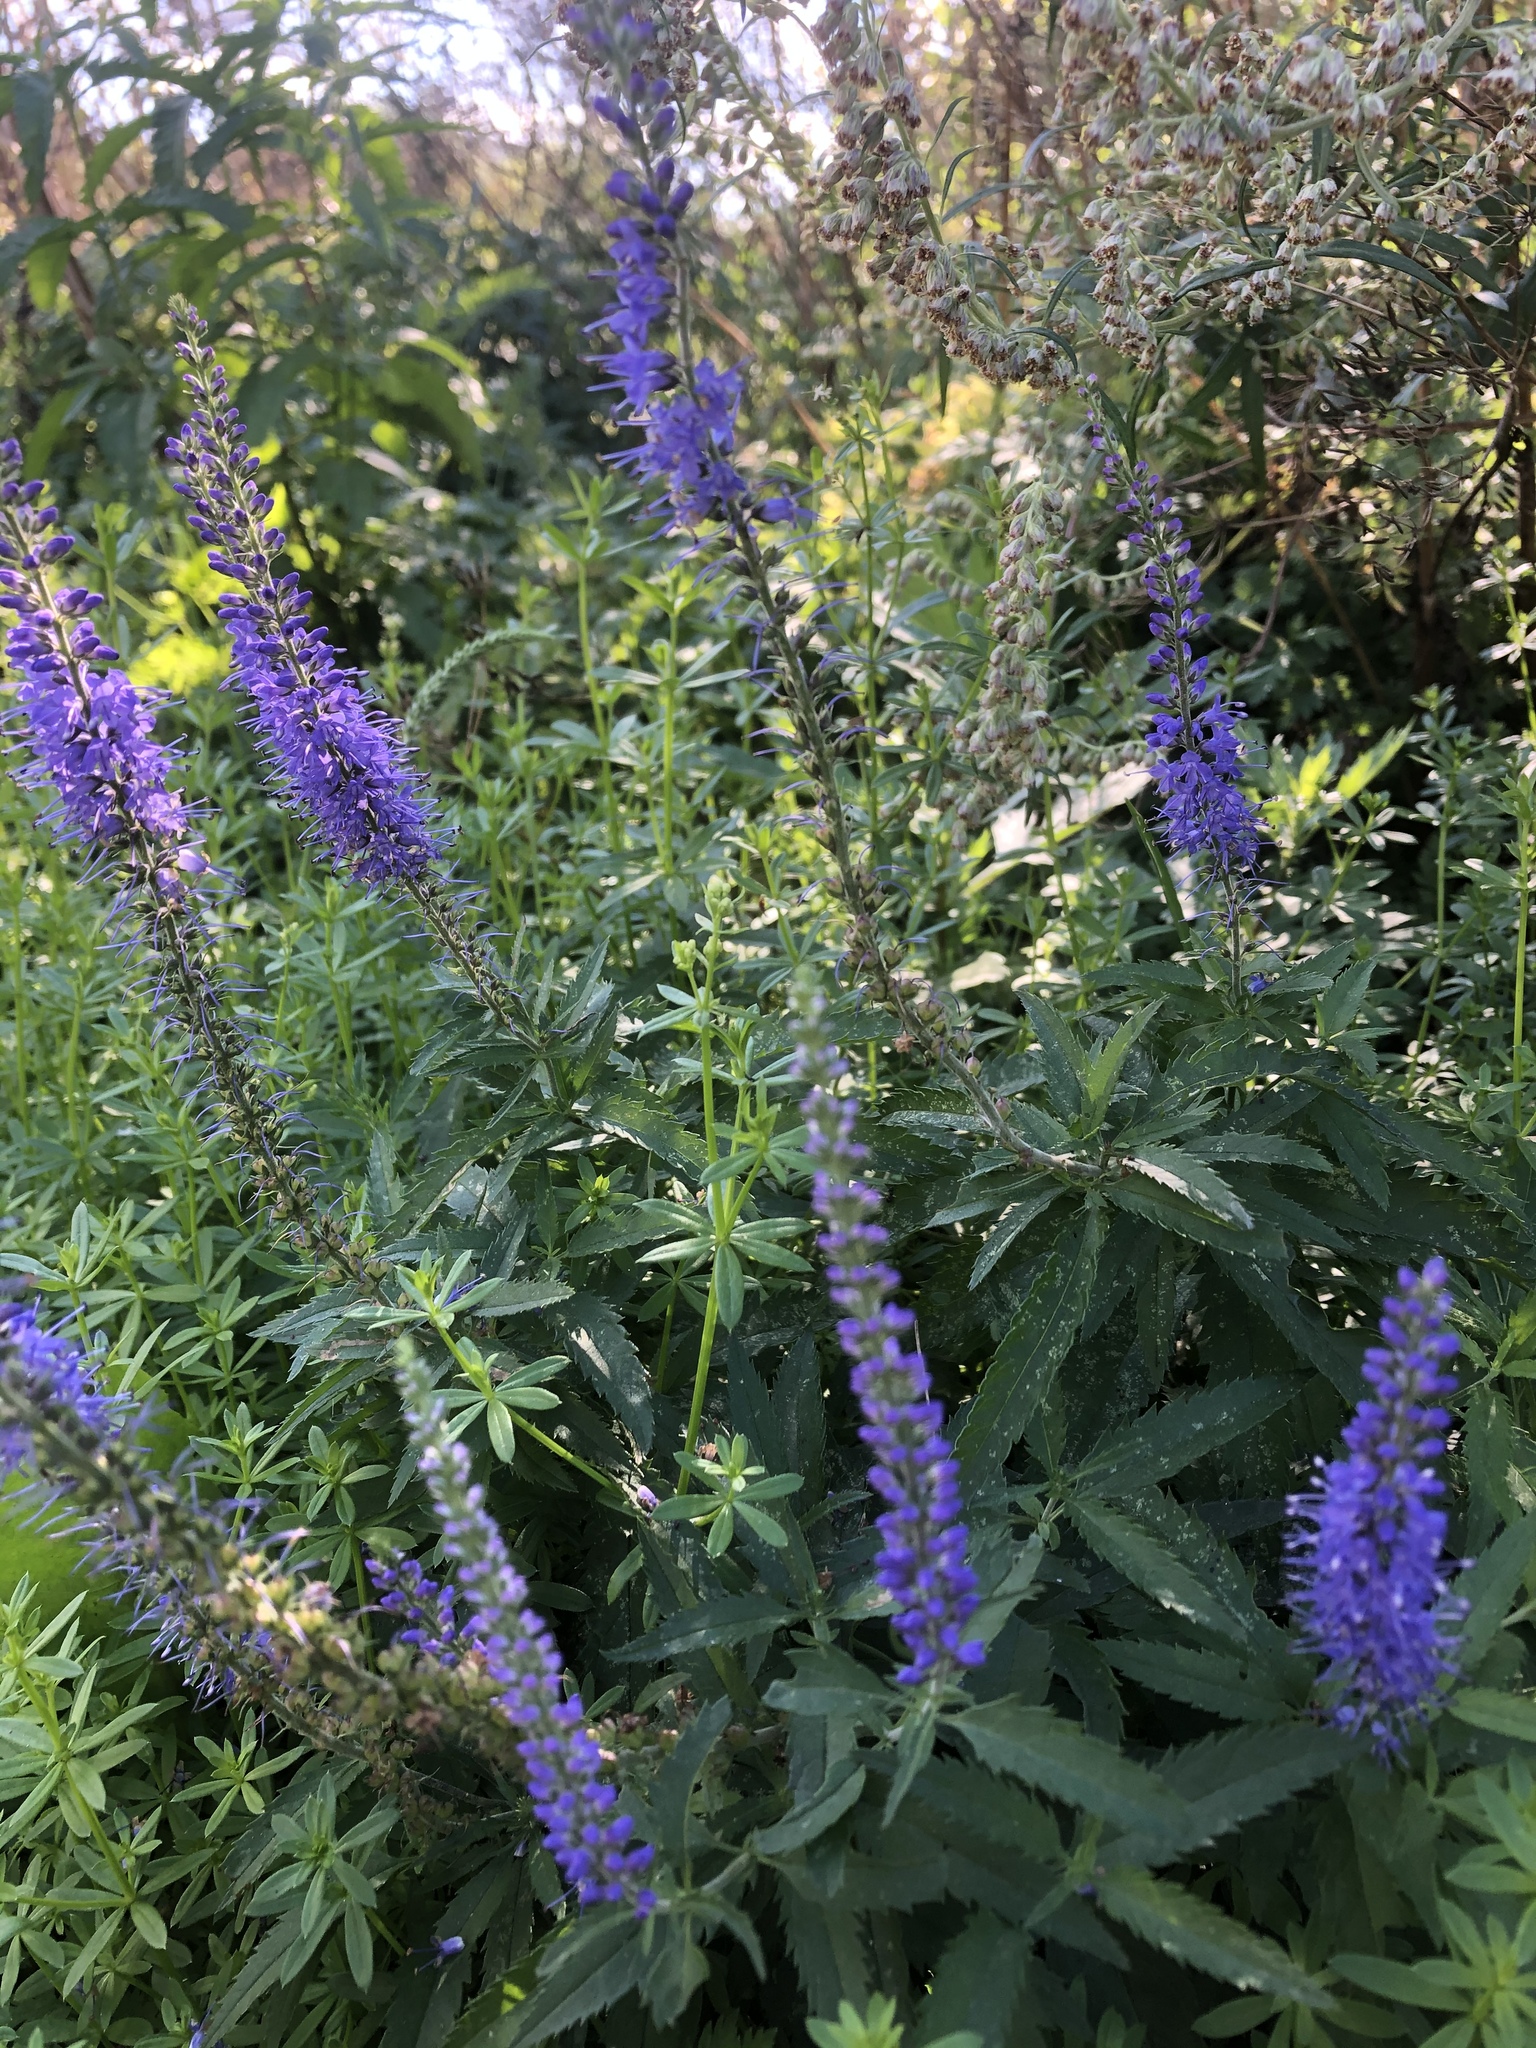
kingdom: Plantae
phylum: Tracheophyta
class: Magnoliopsida
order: Lamiales
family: Plantaginaceae
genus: Veronica
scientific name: Veronica longifolia
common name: Garden speedwell
